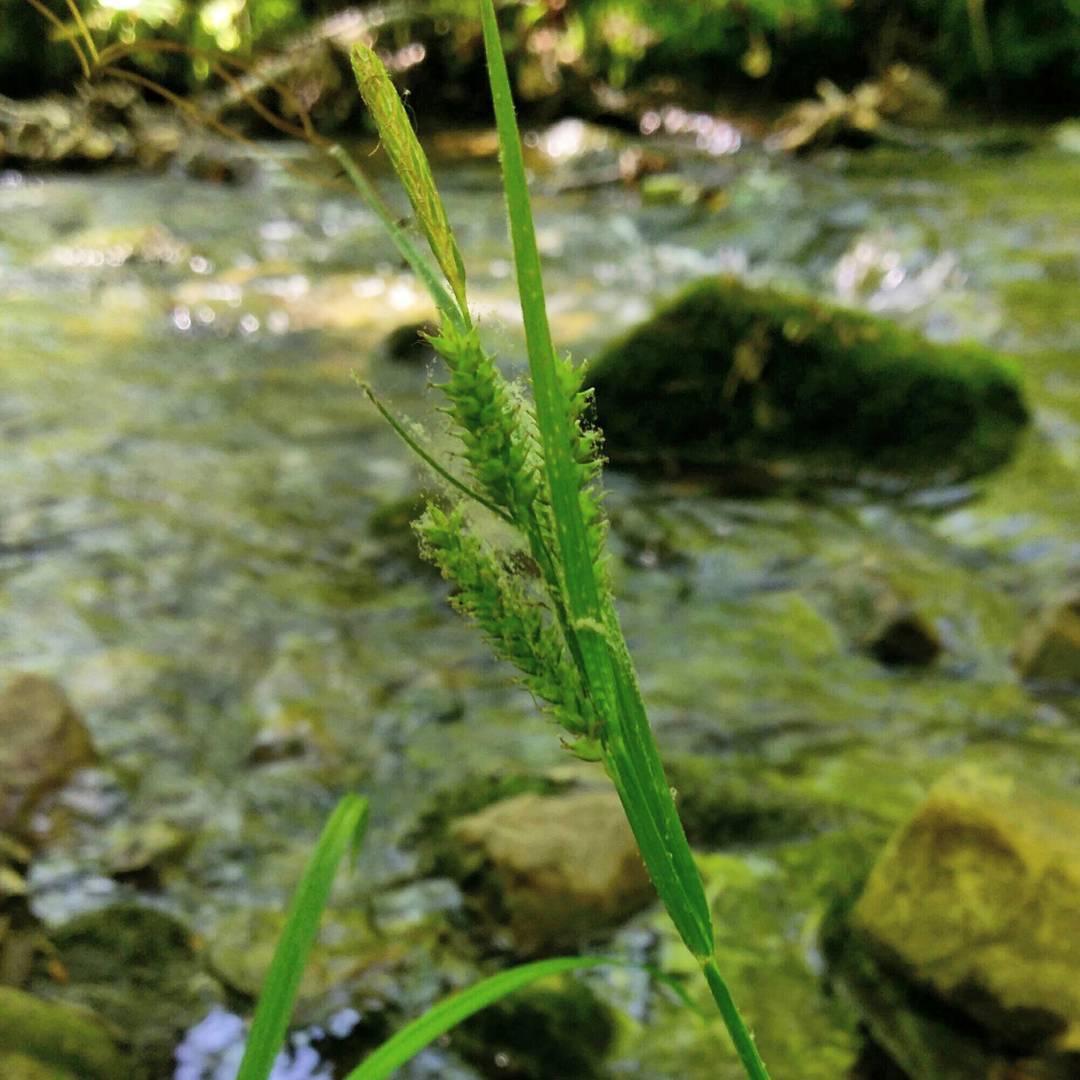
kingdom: Plantae
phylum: Tracheophyta
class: Liliopsida
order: Poales
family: Cyperaceae
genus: Carex
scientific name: Carex scabrata
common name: Eastern rough sedge
